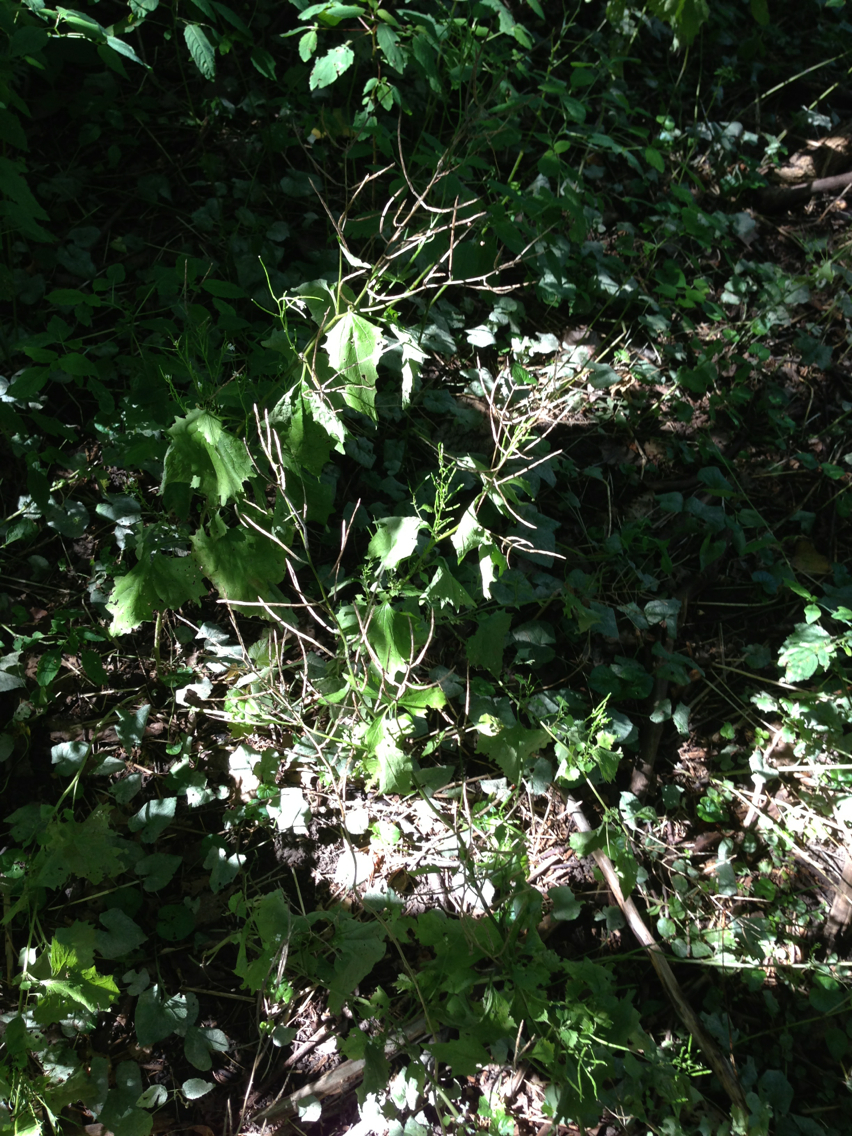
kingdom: Plantae
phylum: Tracheophyta
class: Magnoliopsida
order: Brassicales
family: Brassicaceae
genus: Alliaria
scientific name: Alliaria petiolata
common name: Garlic mustard
